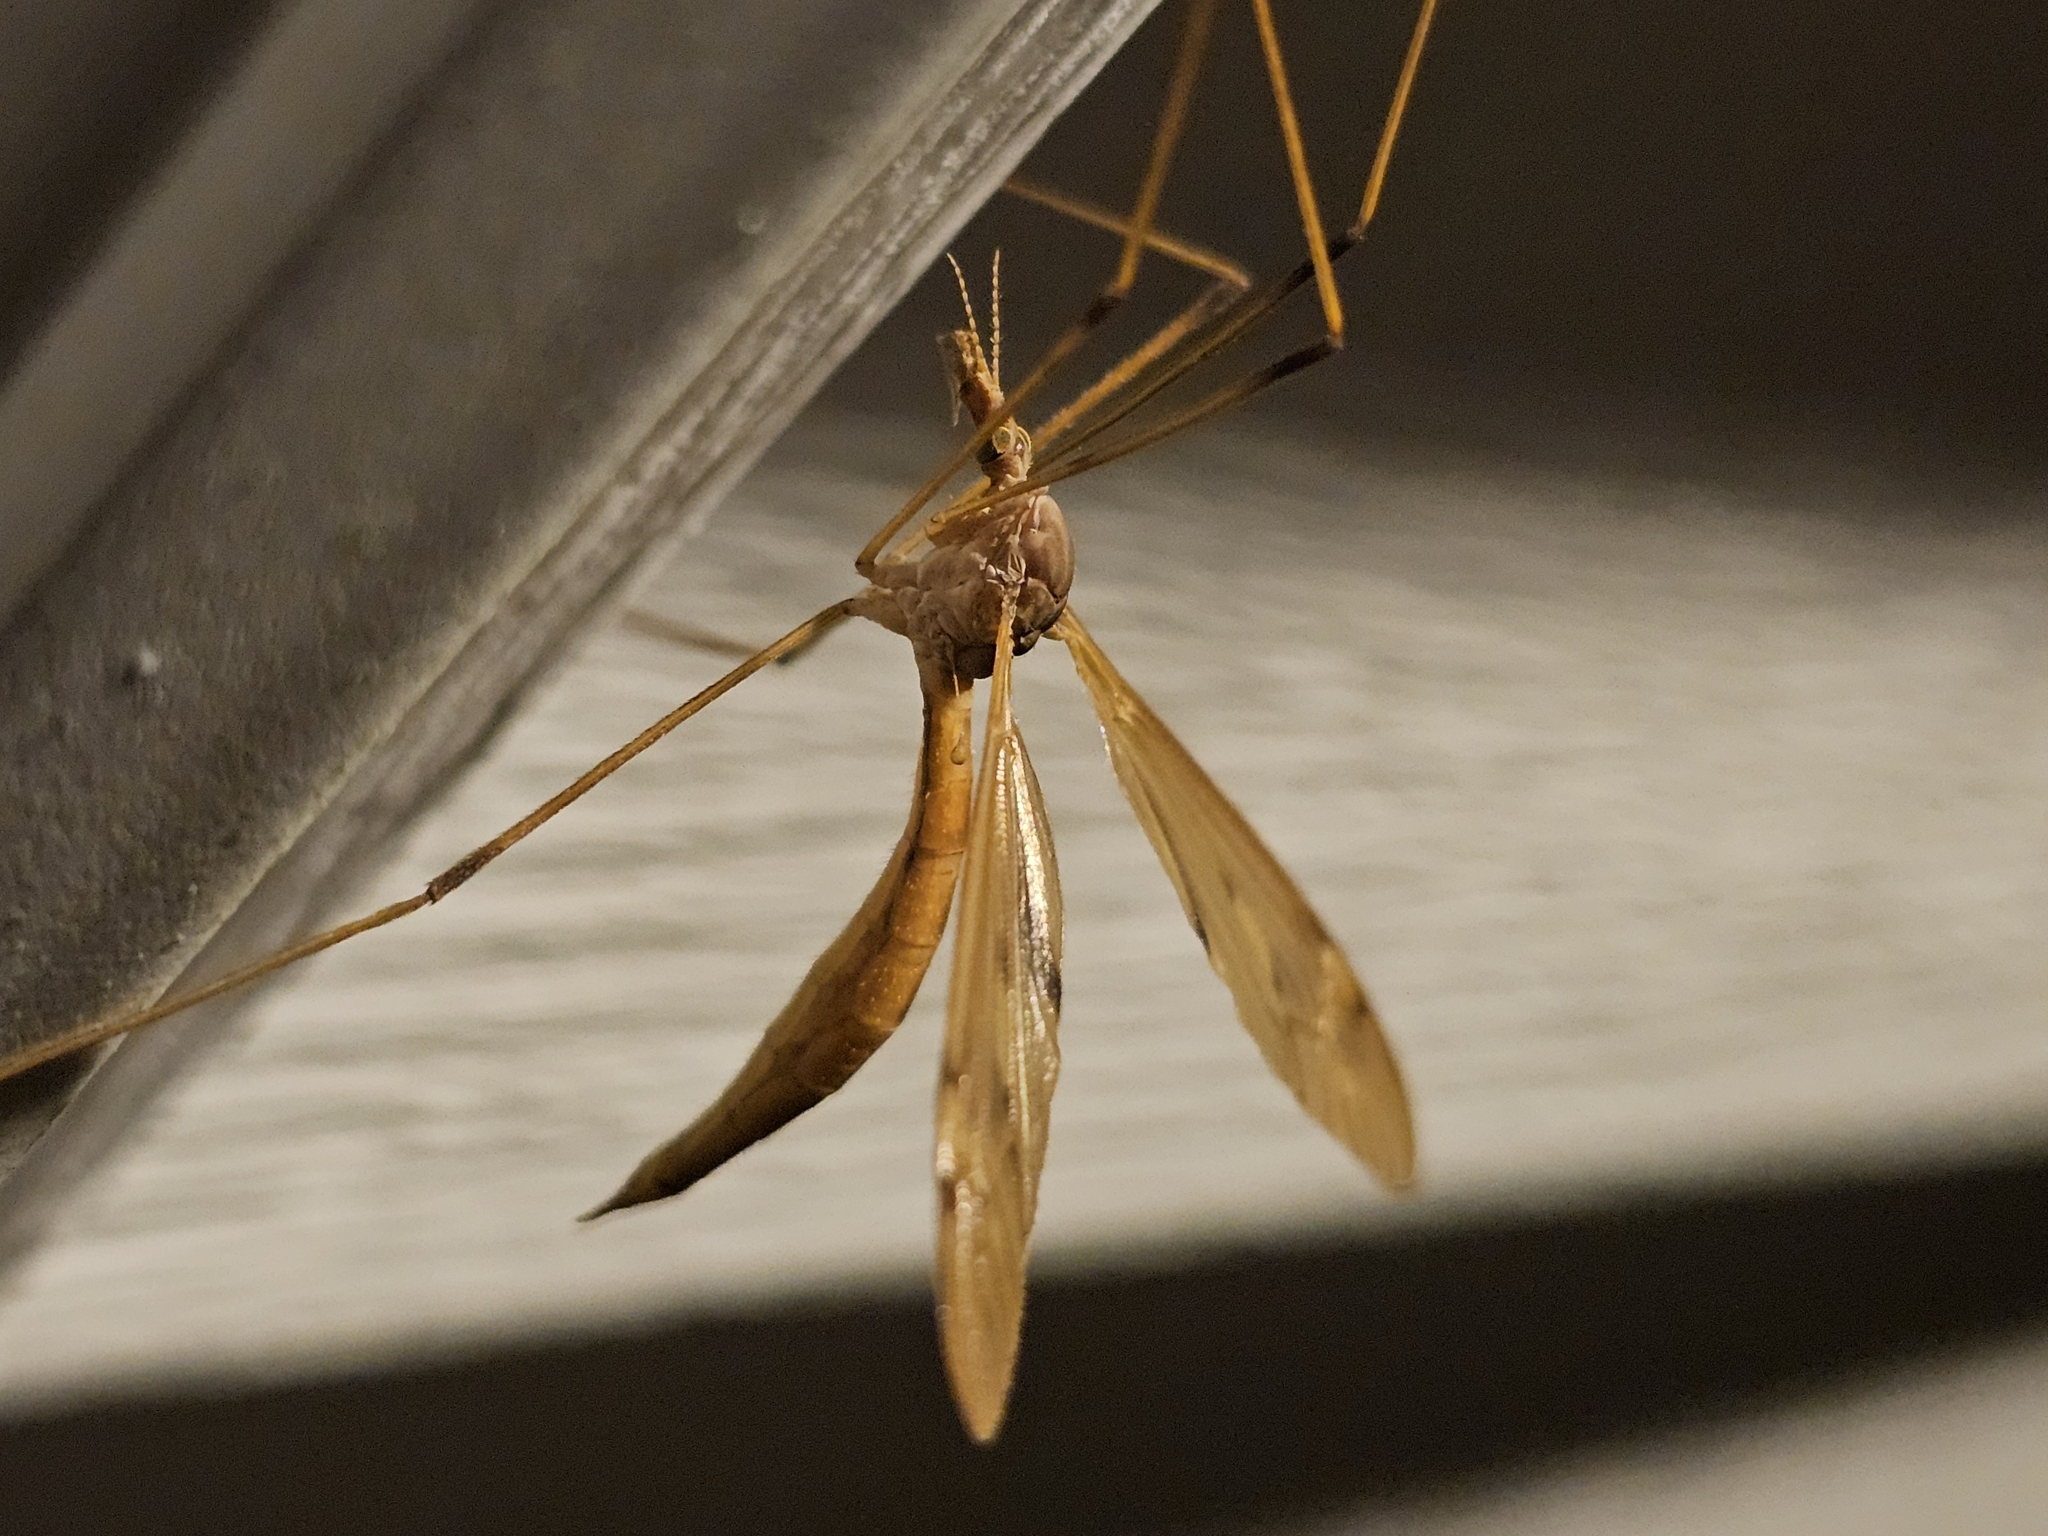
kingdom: Animalia
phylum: Arthropoda
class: Insecta
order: Diptera
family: Tipulidae
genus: Tipula
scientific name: Tipula
